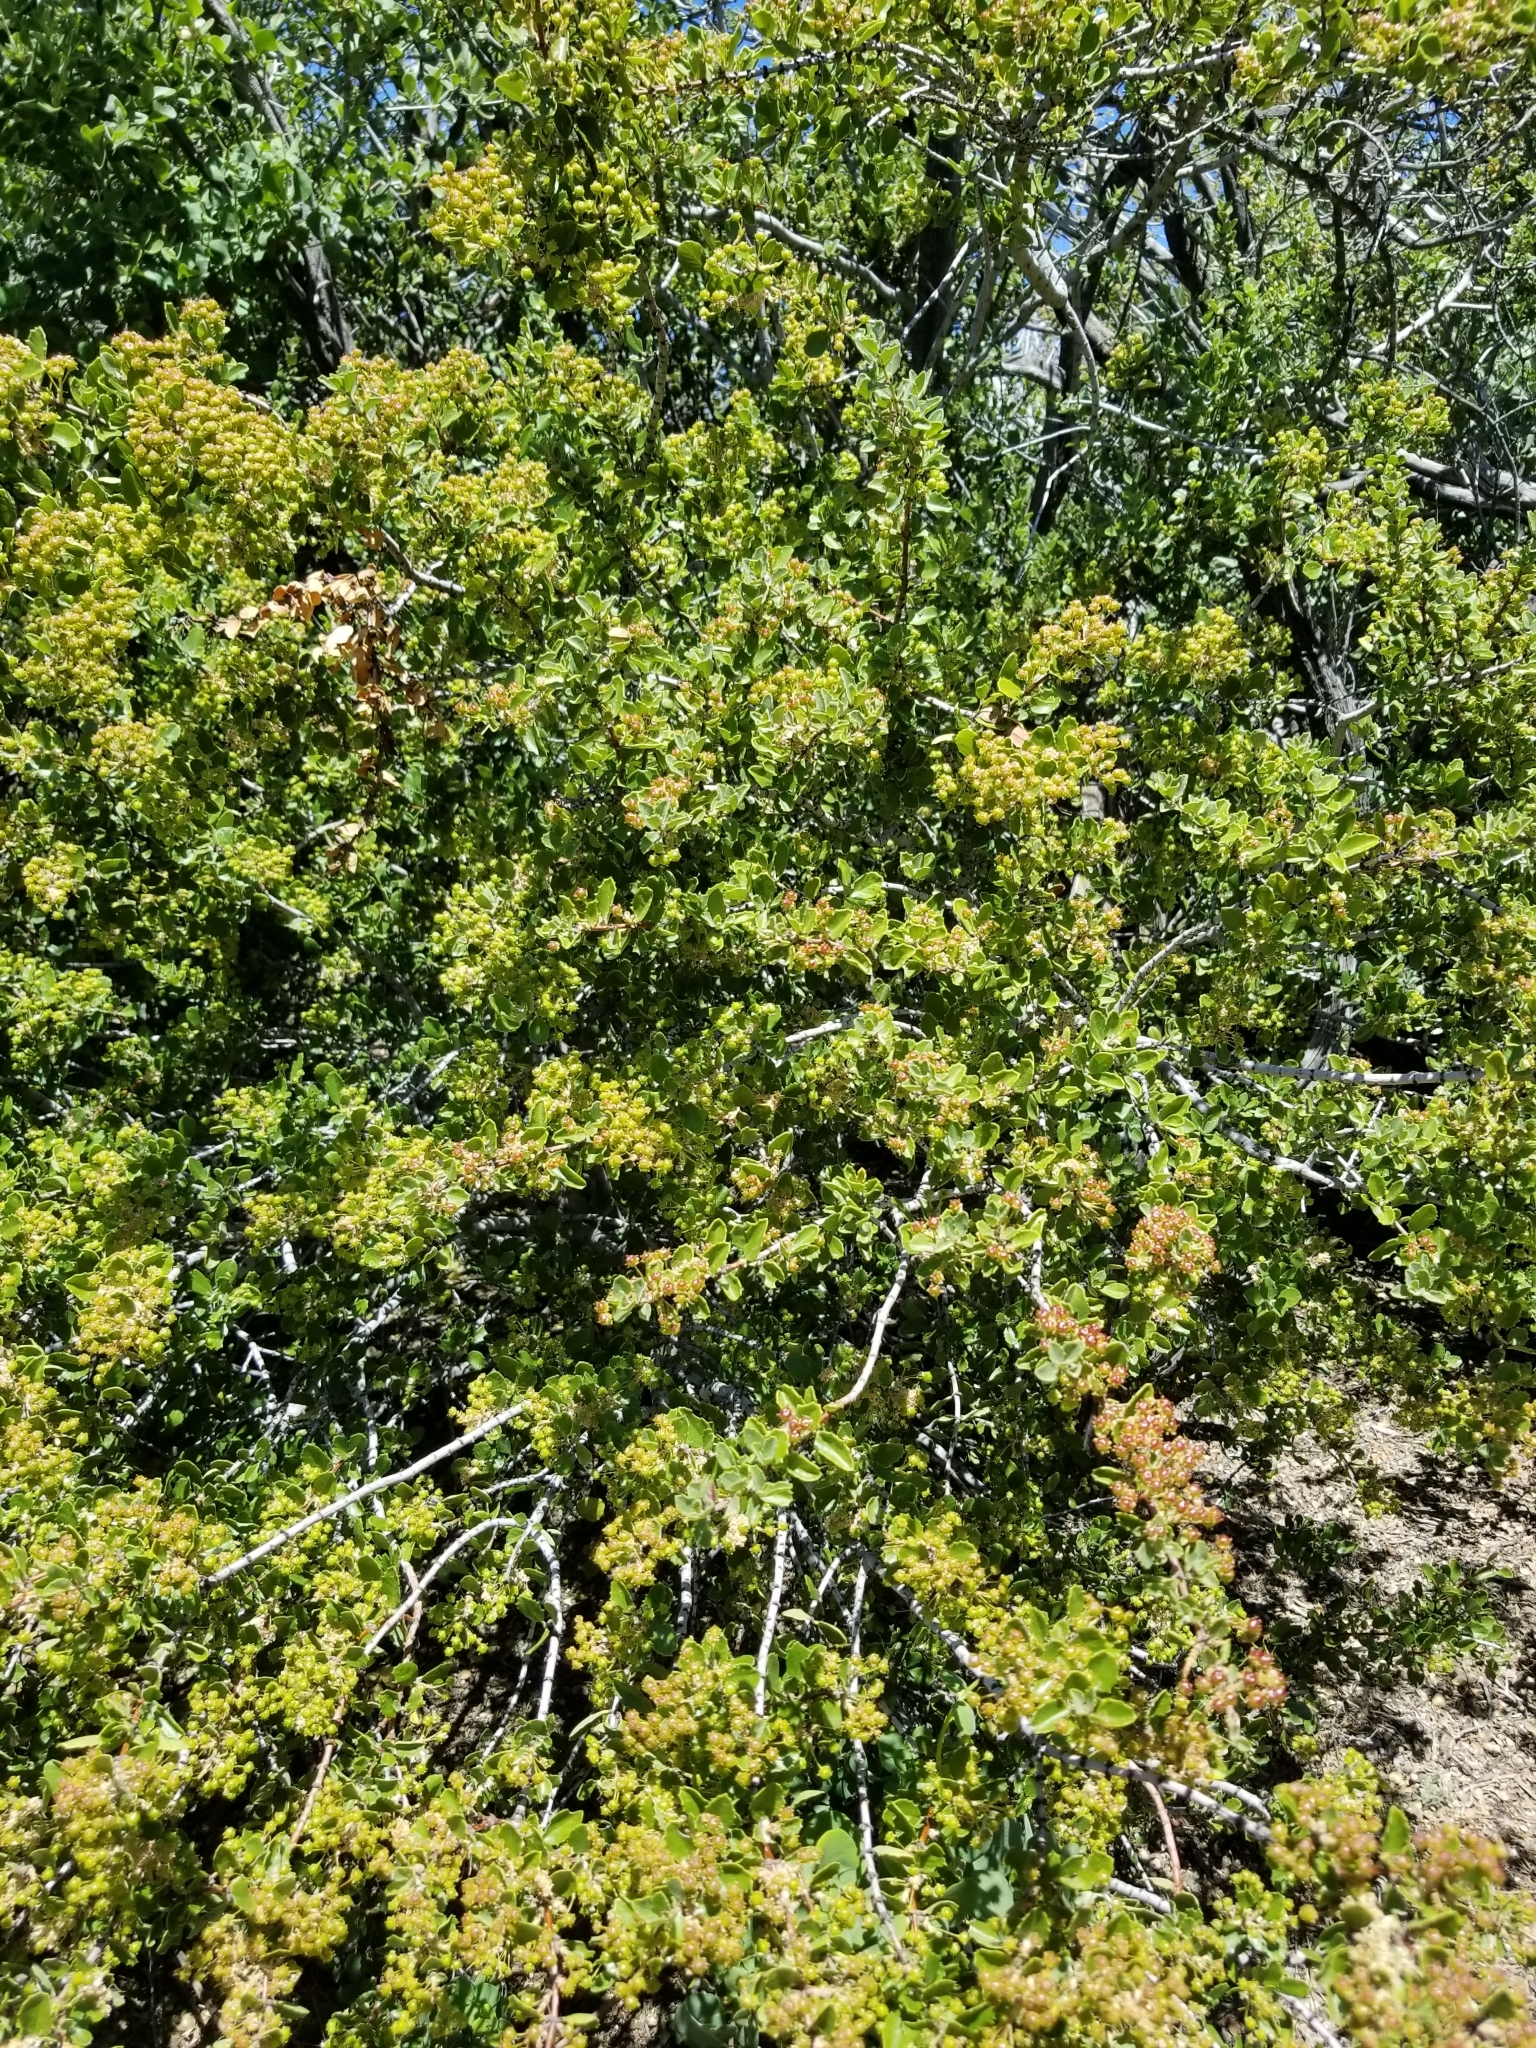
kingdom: Plantae
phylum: Tracheophyta
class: Magnoliopsida
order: Rosales
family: Rhamnaceae
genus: Ceanothus
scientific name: Ceanothus perplexans
